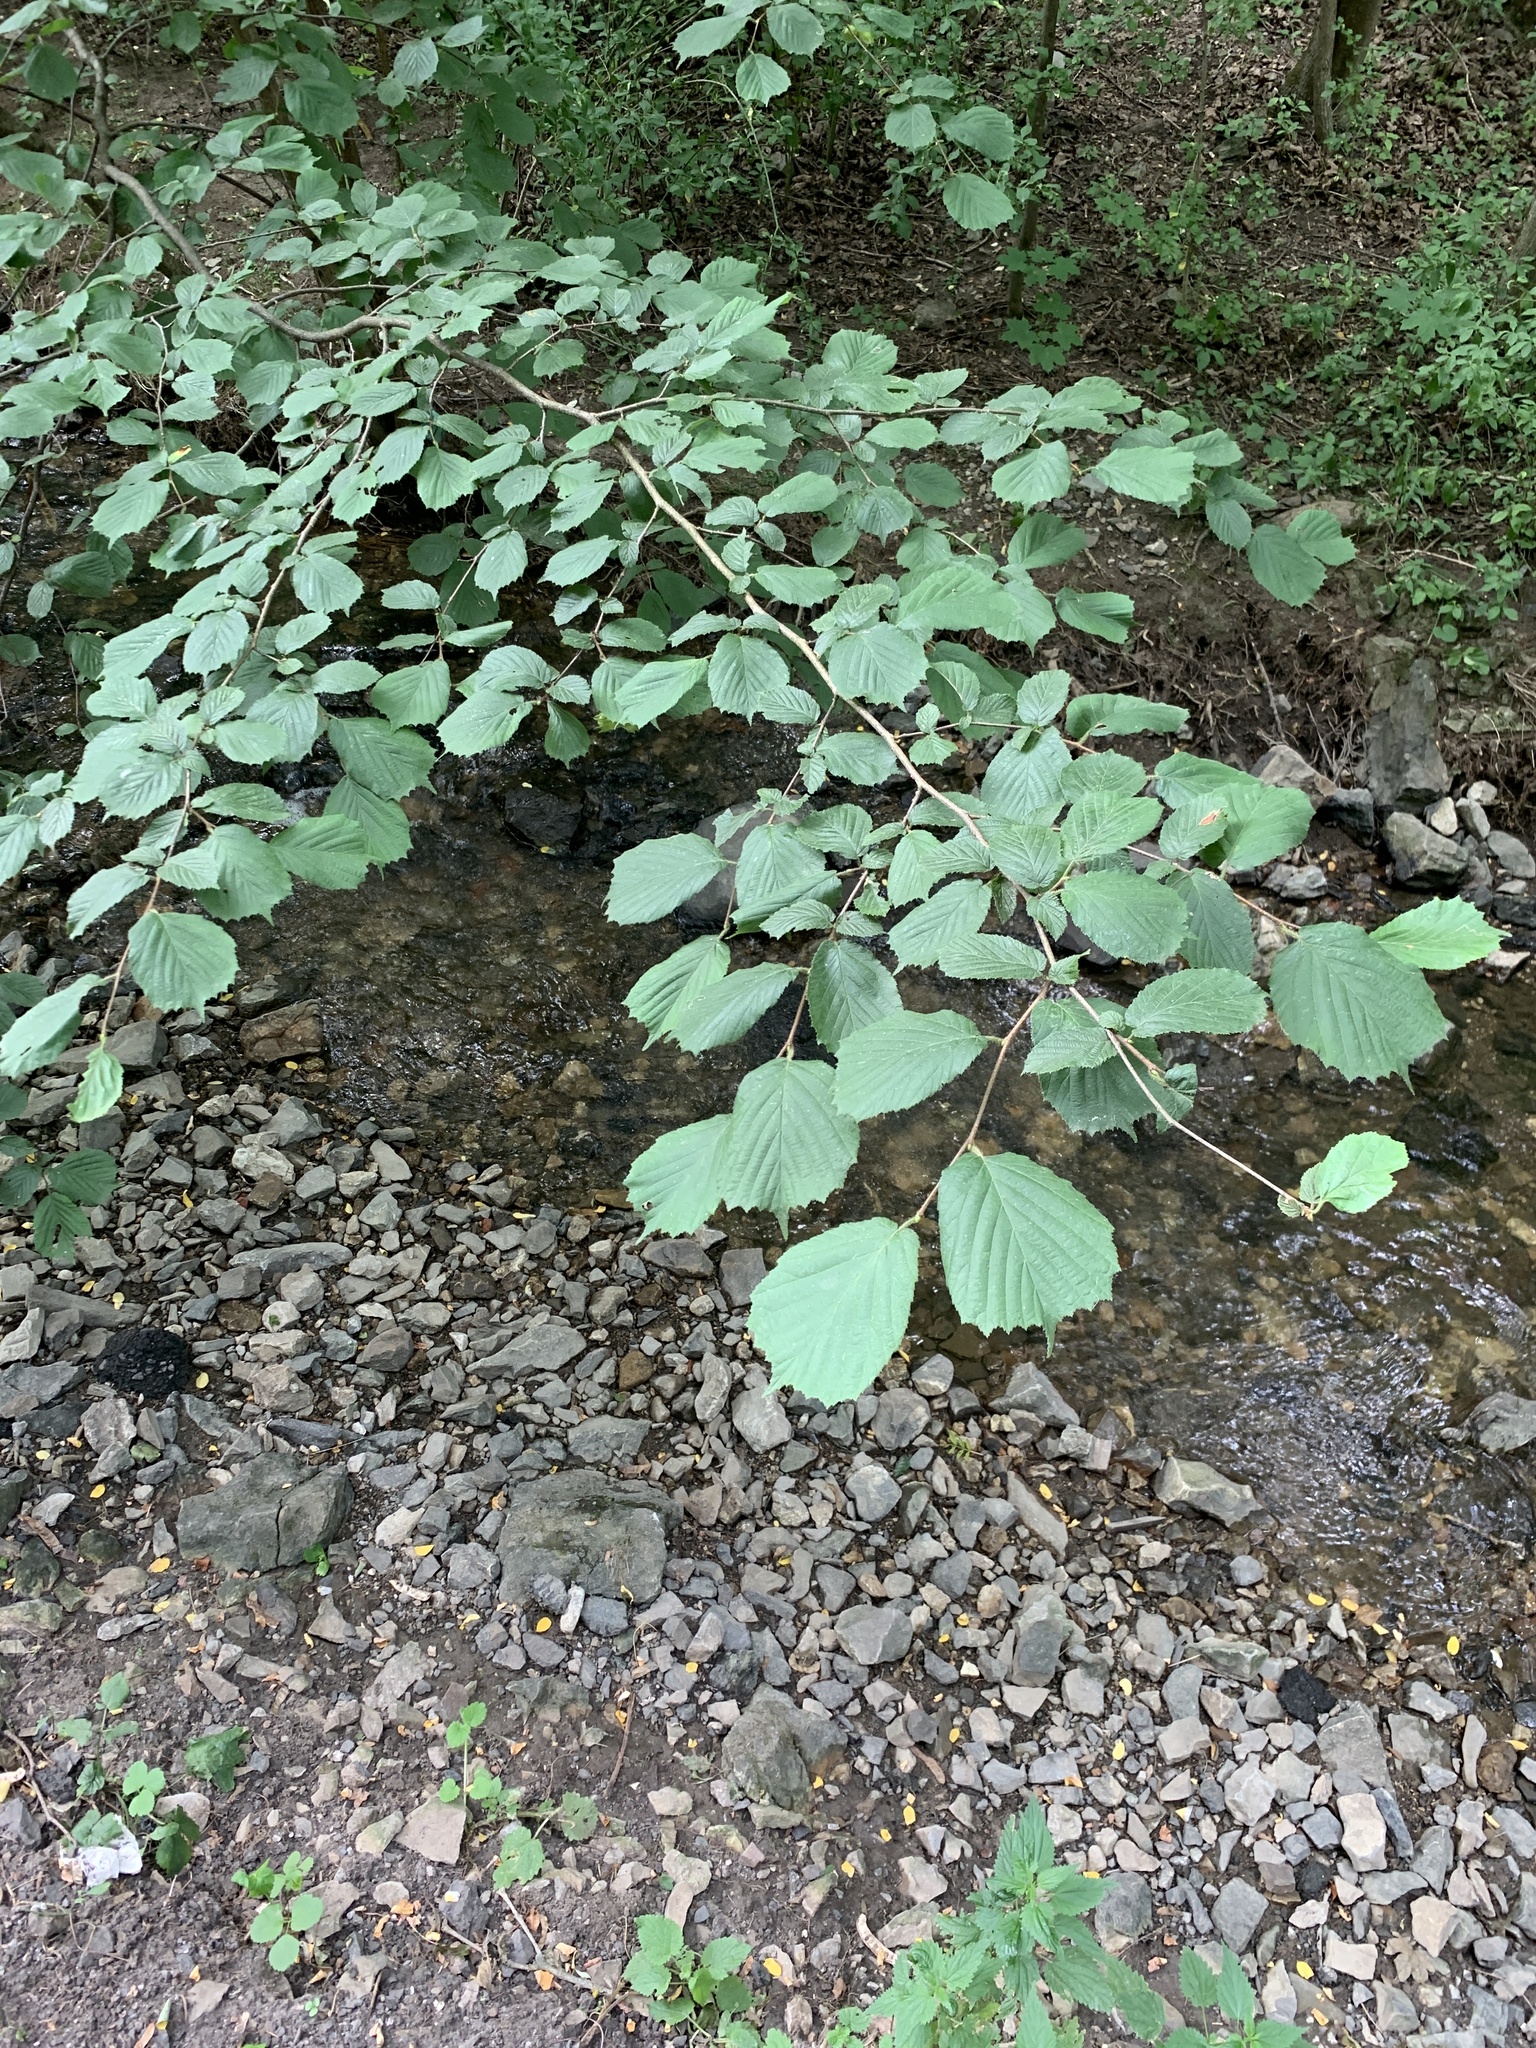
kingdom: Plantae
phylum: Tracheophyta
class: Magnoliopsida
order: Fagales
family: Betulaceae
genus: Corylus
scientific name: Corylus avellana
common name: European hazel
